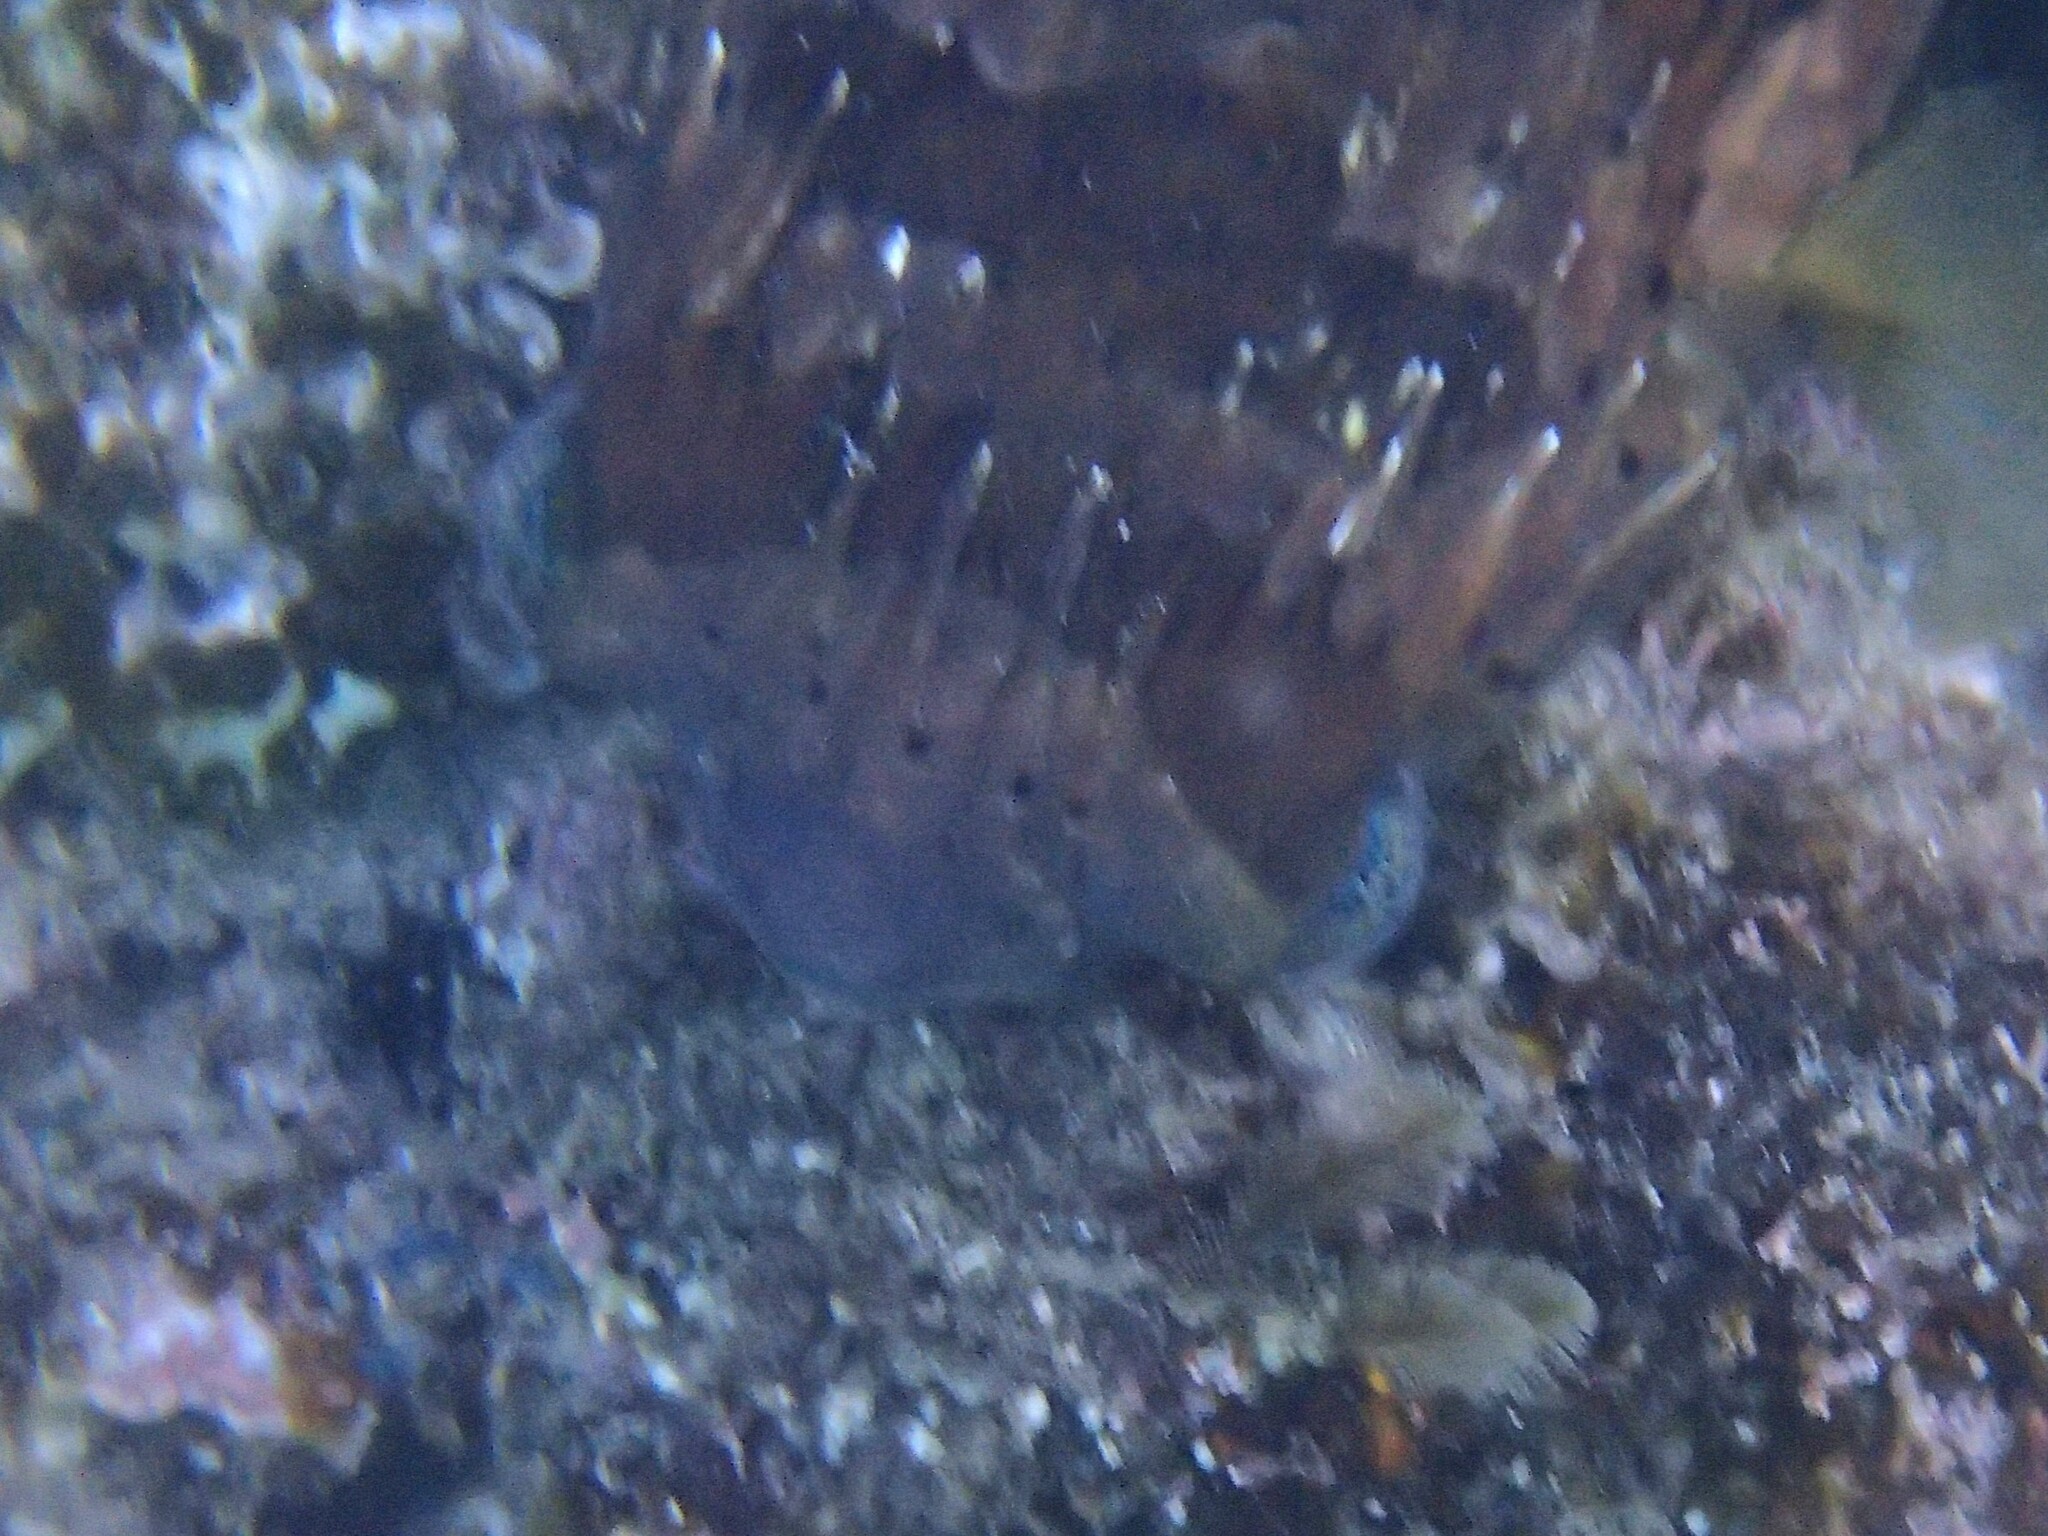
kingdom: Animalia
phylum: Chordata
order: Tetraodontiformes
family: Diodontidae
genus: Diodon
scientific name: Diodon holocanthus
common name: Balloonfish
